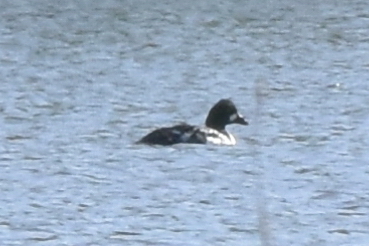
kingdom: Animalia
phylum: Chordata
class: Aves
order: Anseriformes
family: Anatidae
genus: Bucephala
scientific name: Bucephala clangula
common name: Common goldeneye
